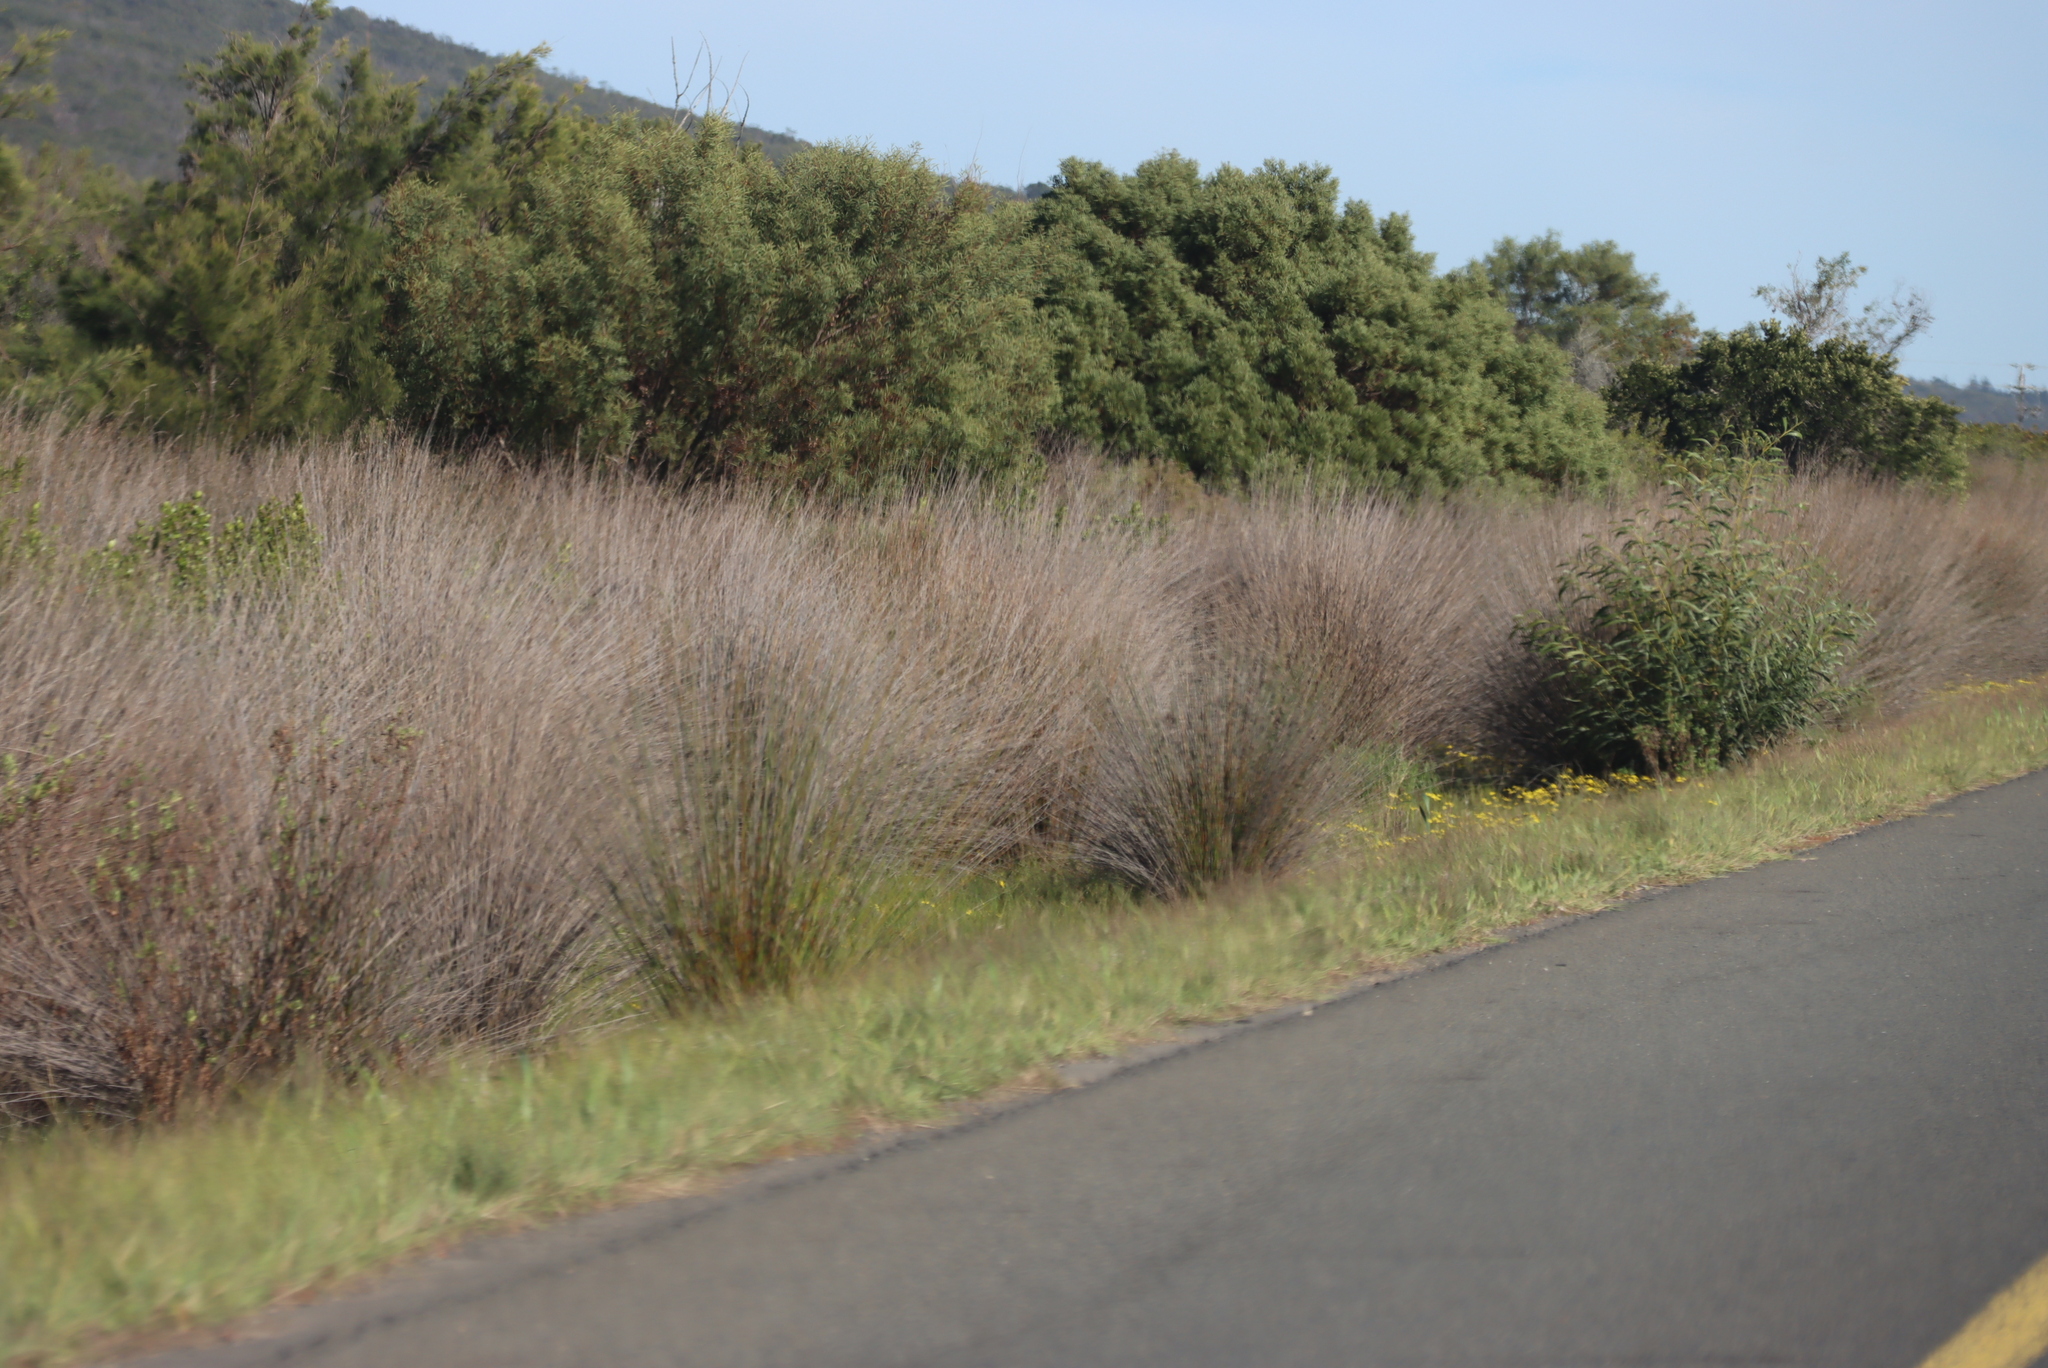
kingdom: Plantae
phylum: Tracheophyta
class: Magnoliopsida
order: Fabales
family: Fabaceae
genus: Acacia
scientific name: Acacia saligna
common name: Orange wattle
